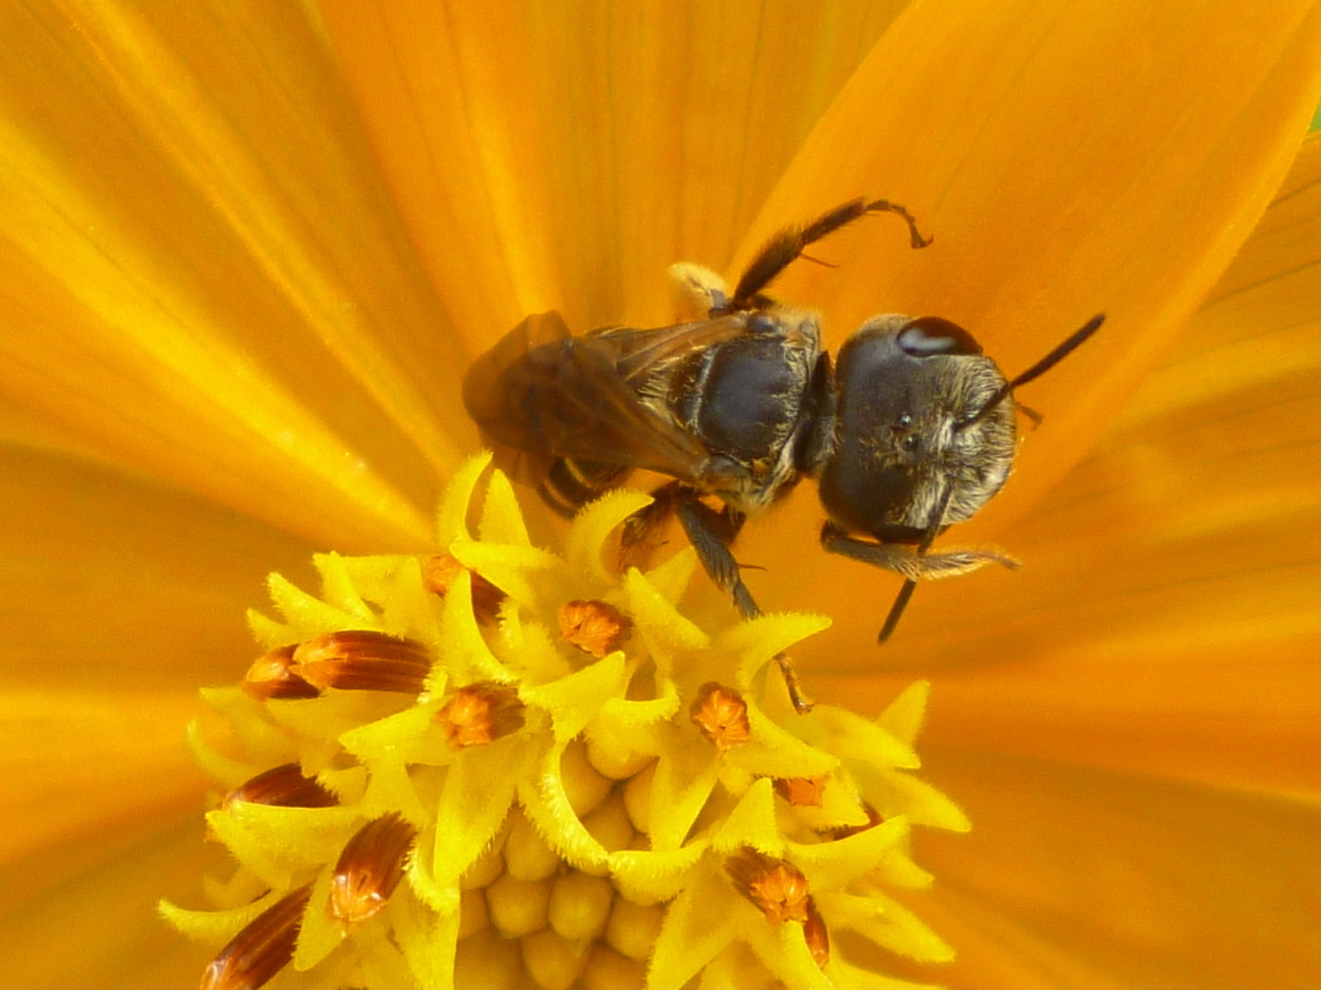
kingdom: Animalia
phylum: Arthropoda
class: Insecta
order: Hymenoptera
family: Halictidae
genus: Halictus
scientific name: Halictus poeyi
